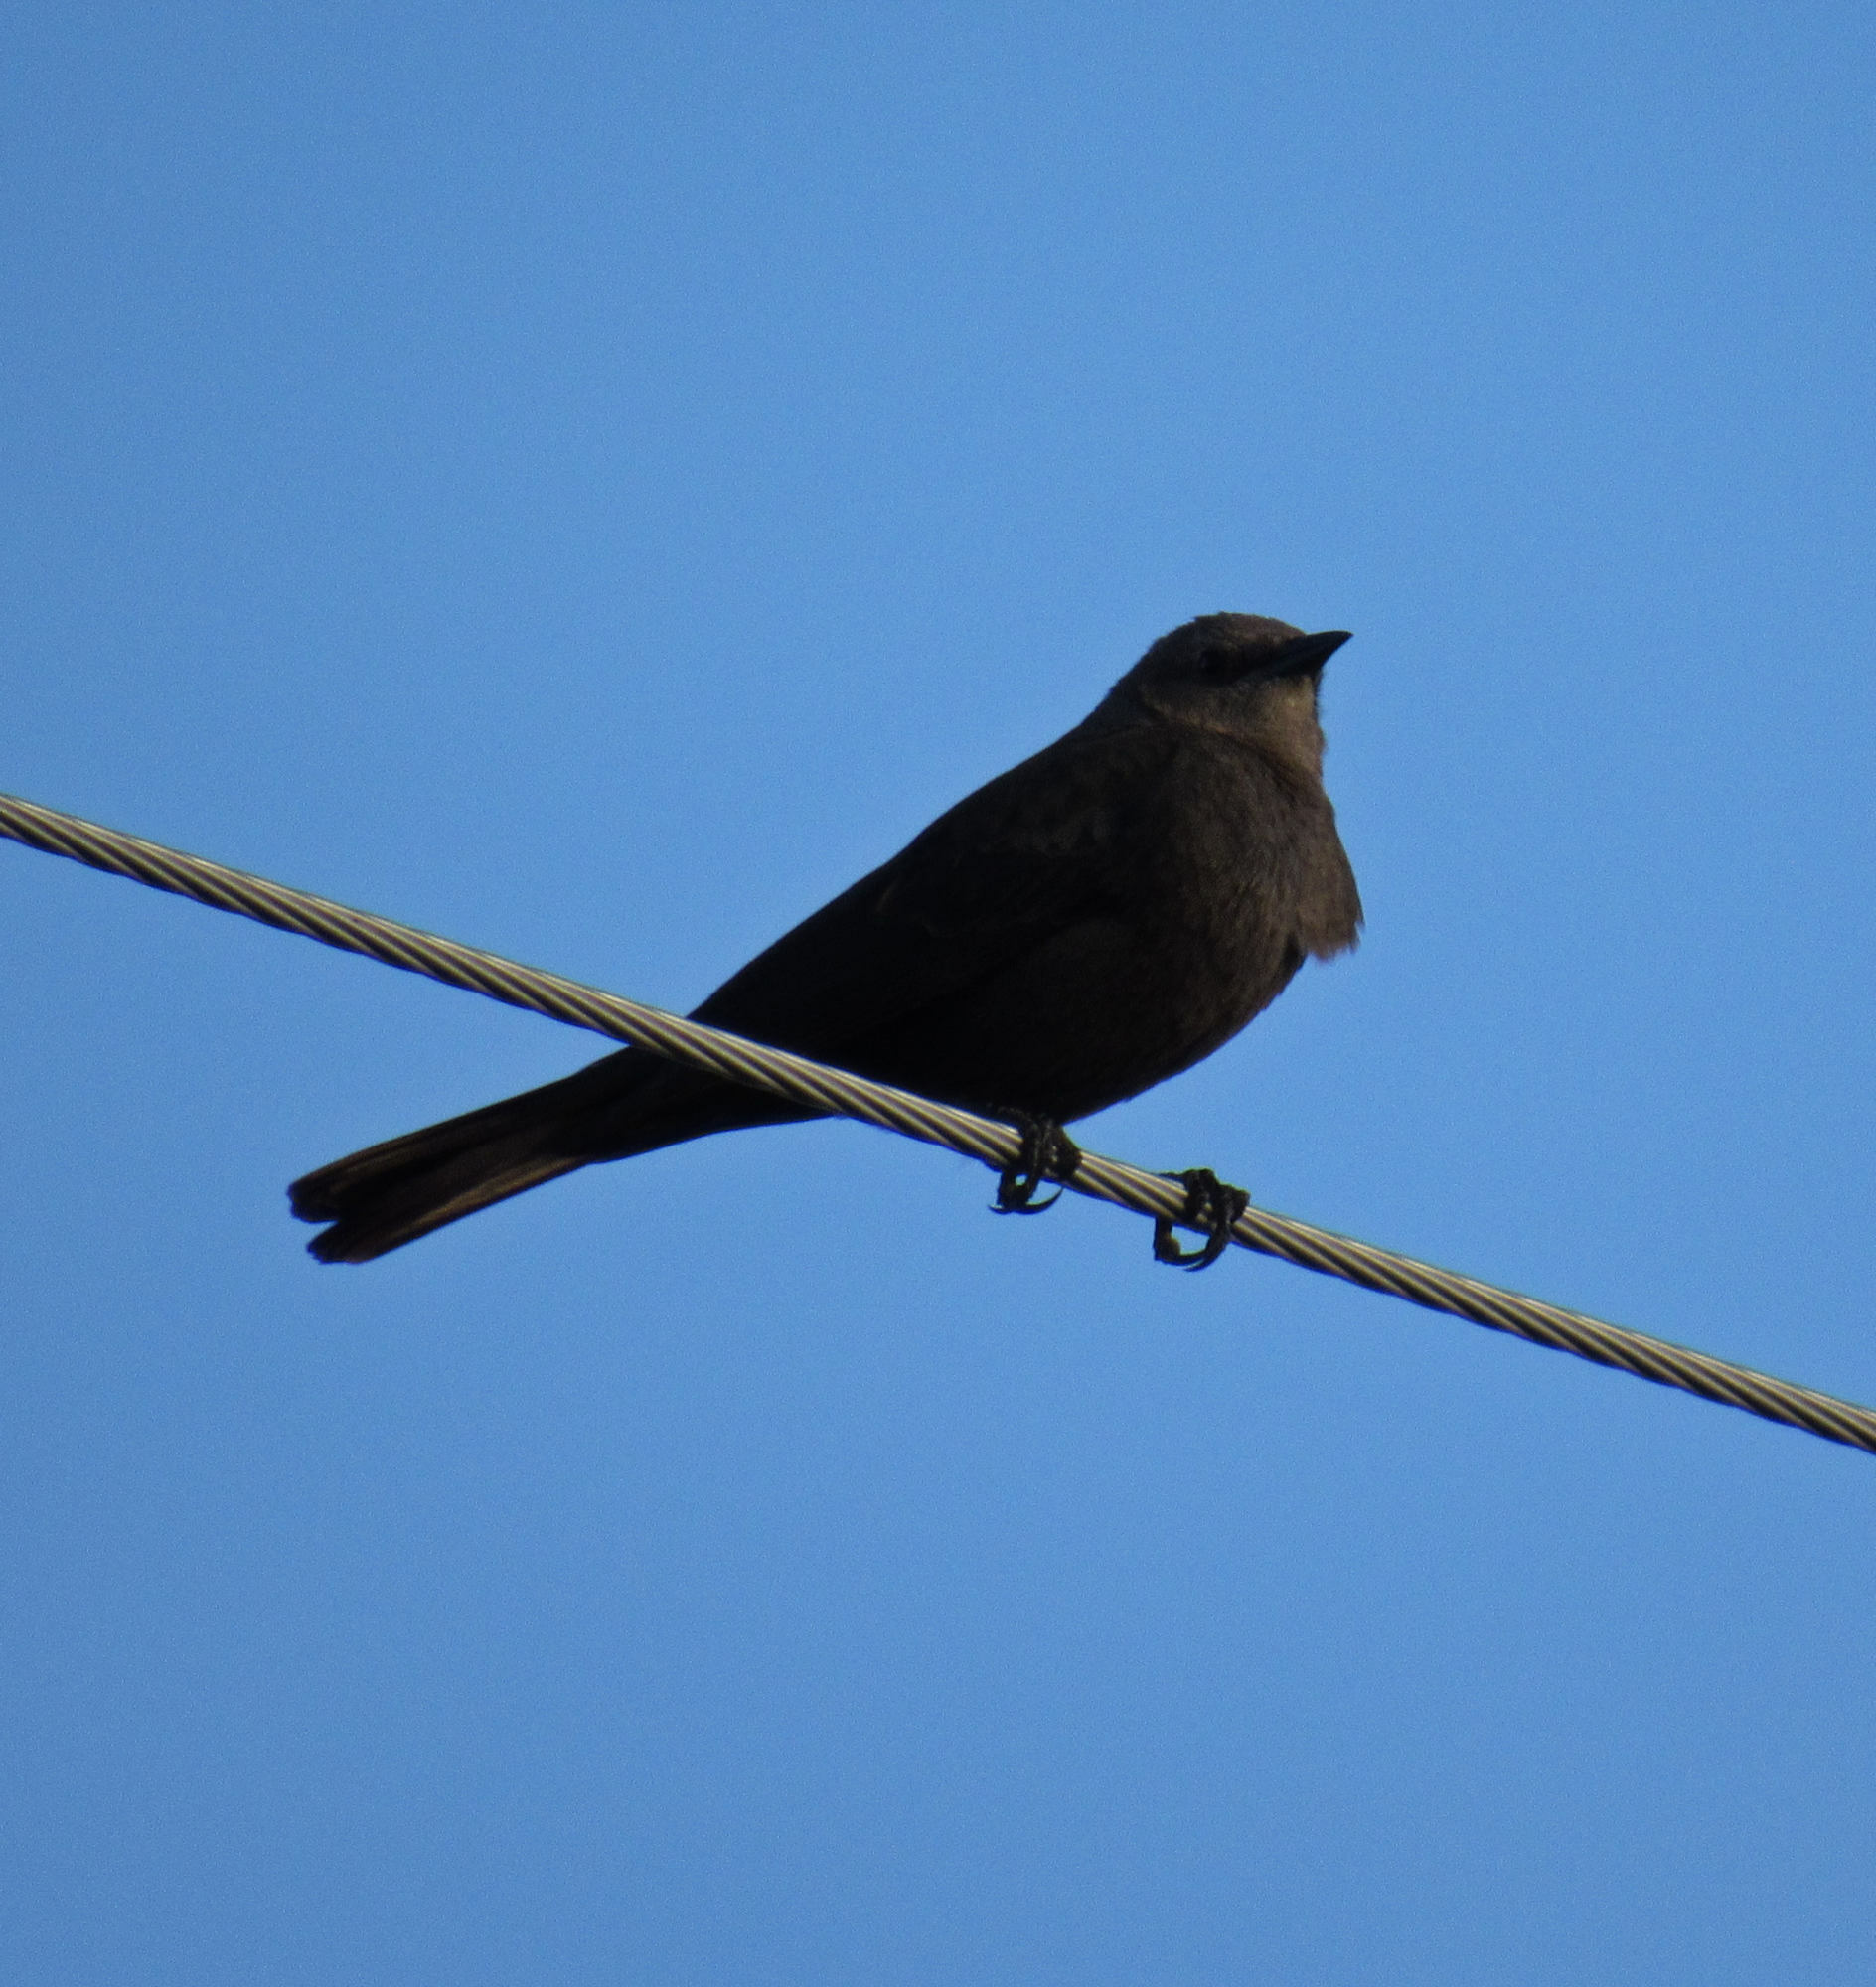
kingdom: Animalia
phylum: Chordata
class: Aves
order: Passeriformes
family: Icteridae
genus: Euphagus
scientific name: Euphagus cyanocephalus
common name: Brewer's blackbird
